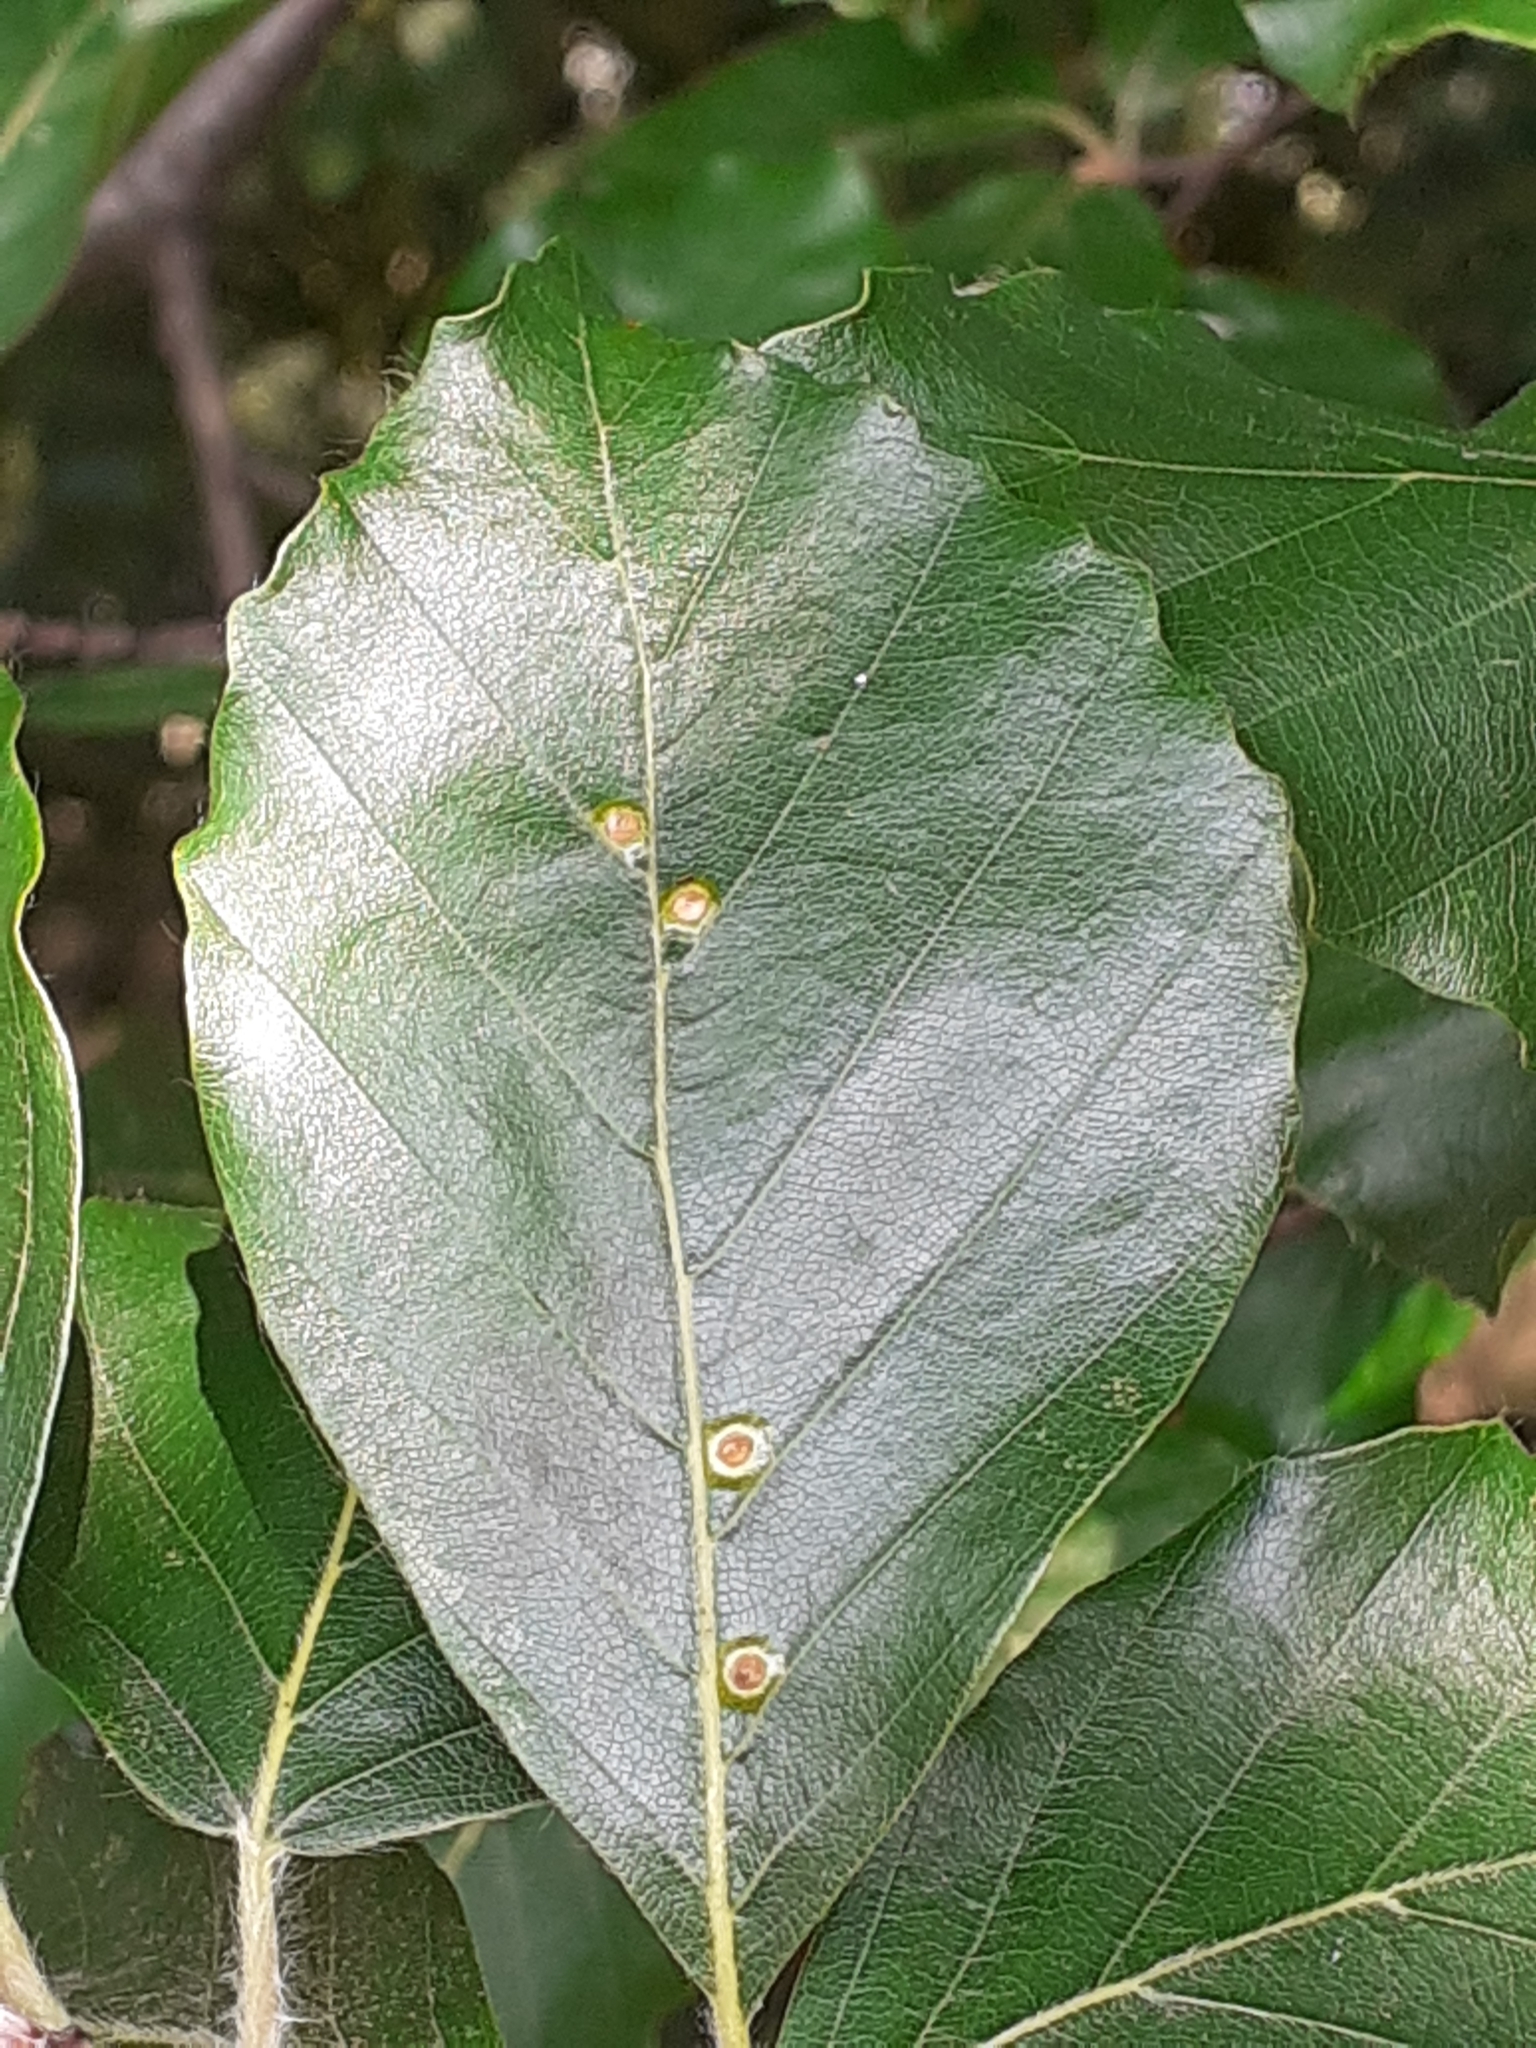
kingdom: Animalia
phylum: Arthropoda
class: Insecta
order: Diptera
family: Cecidomyiidae
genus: Hartigiola
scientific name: Hartigiola annulipes
